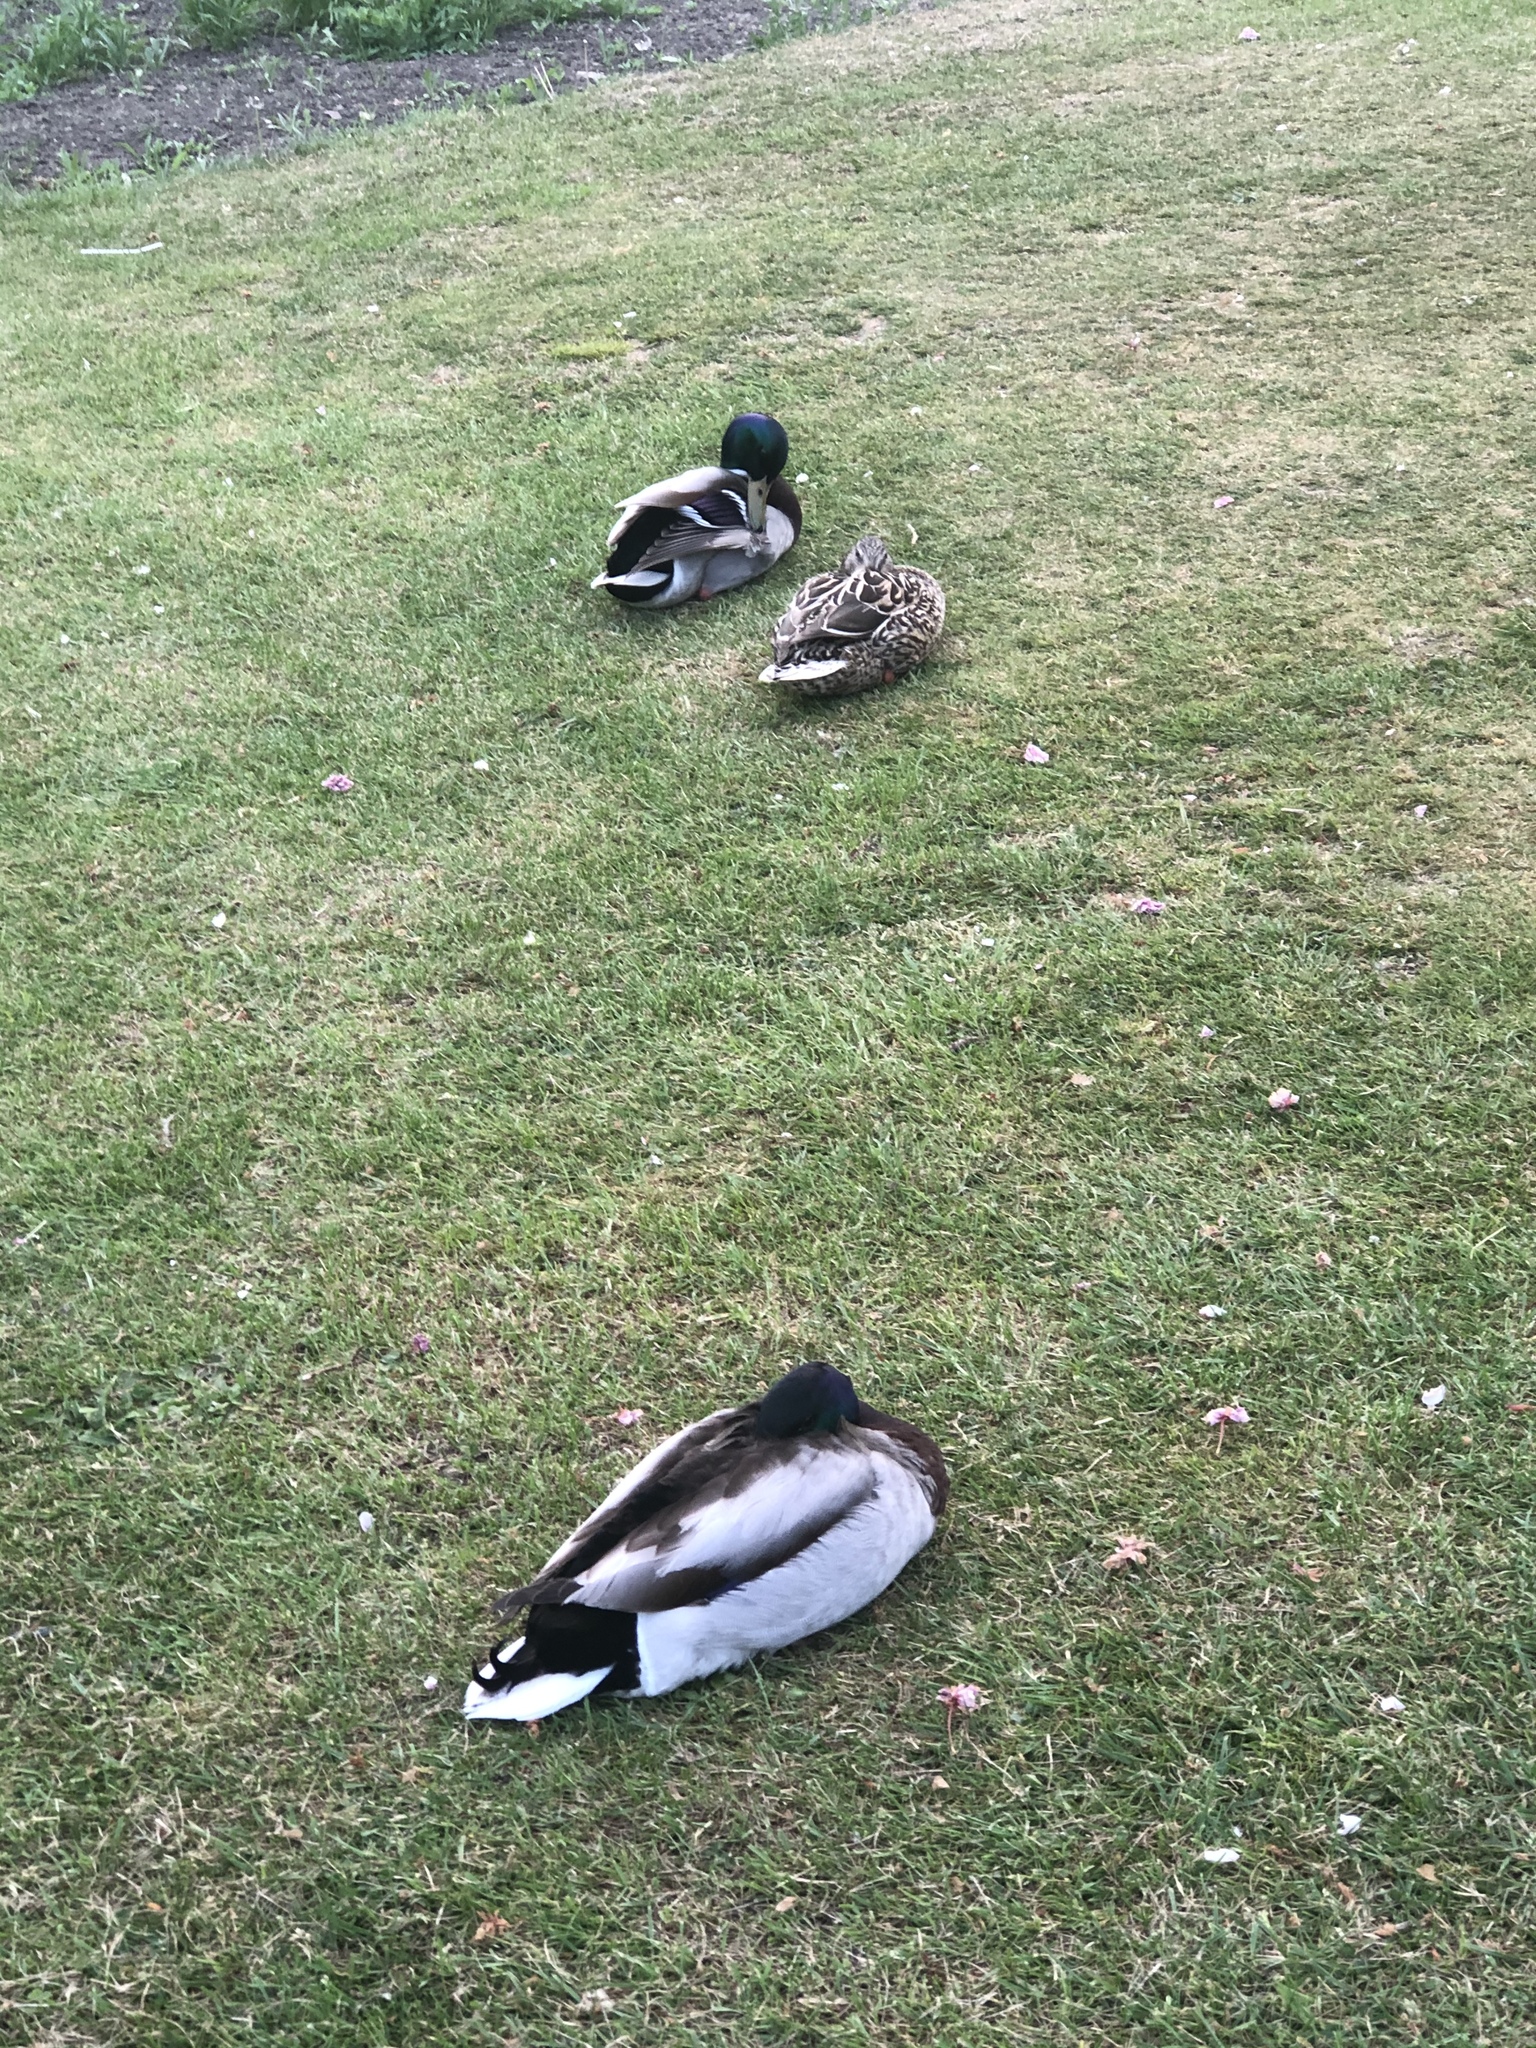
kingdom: Animalia
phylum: Chordata
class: Aves
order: Anseriformes
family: Anatidae
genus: Anas
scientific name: Anas platyrhynchos
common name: Mallard
